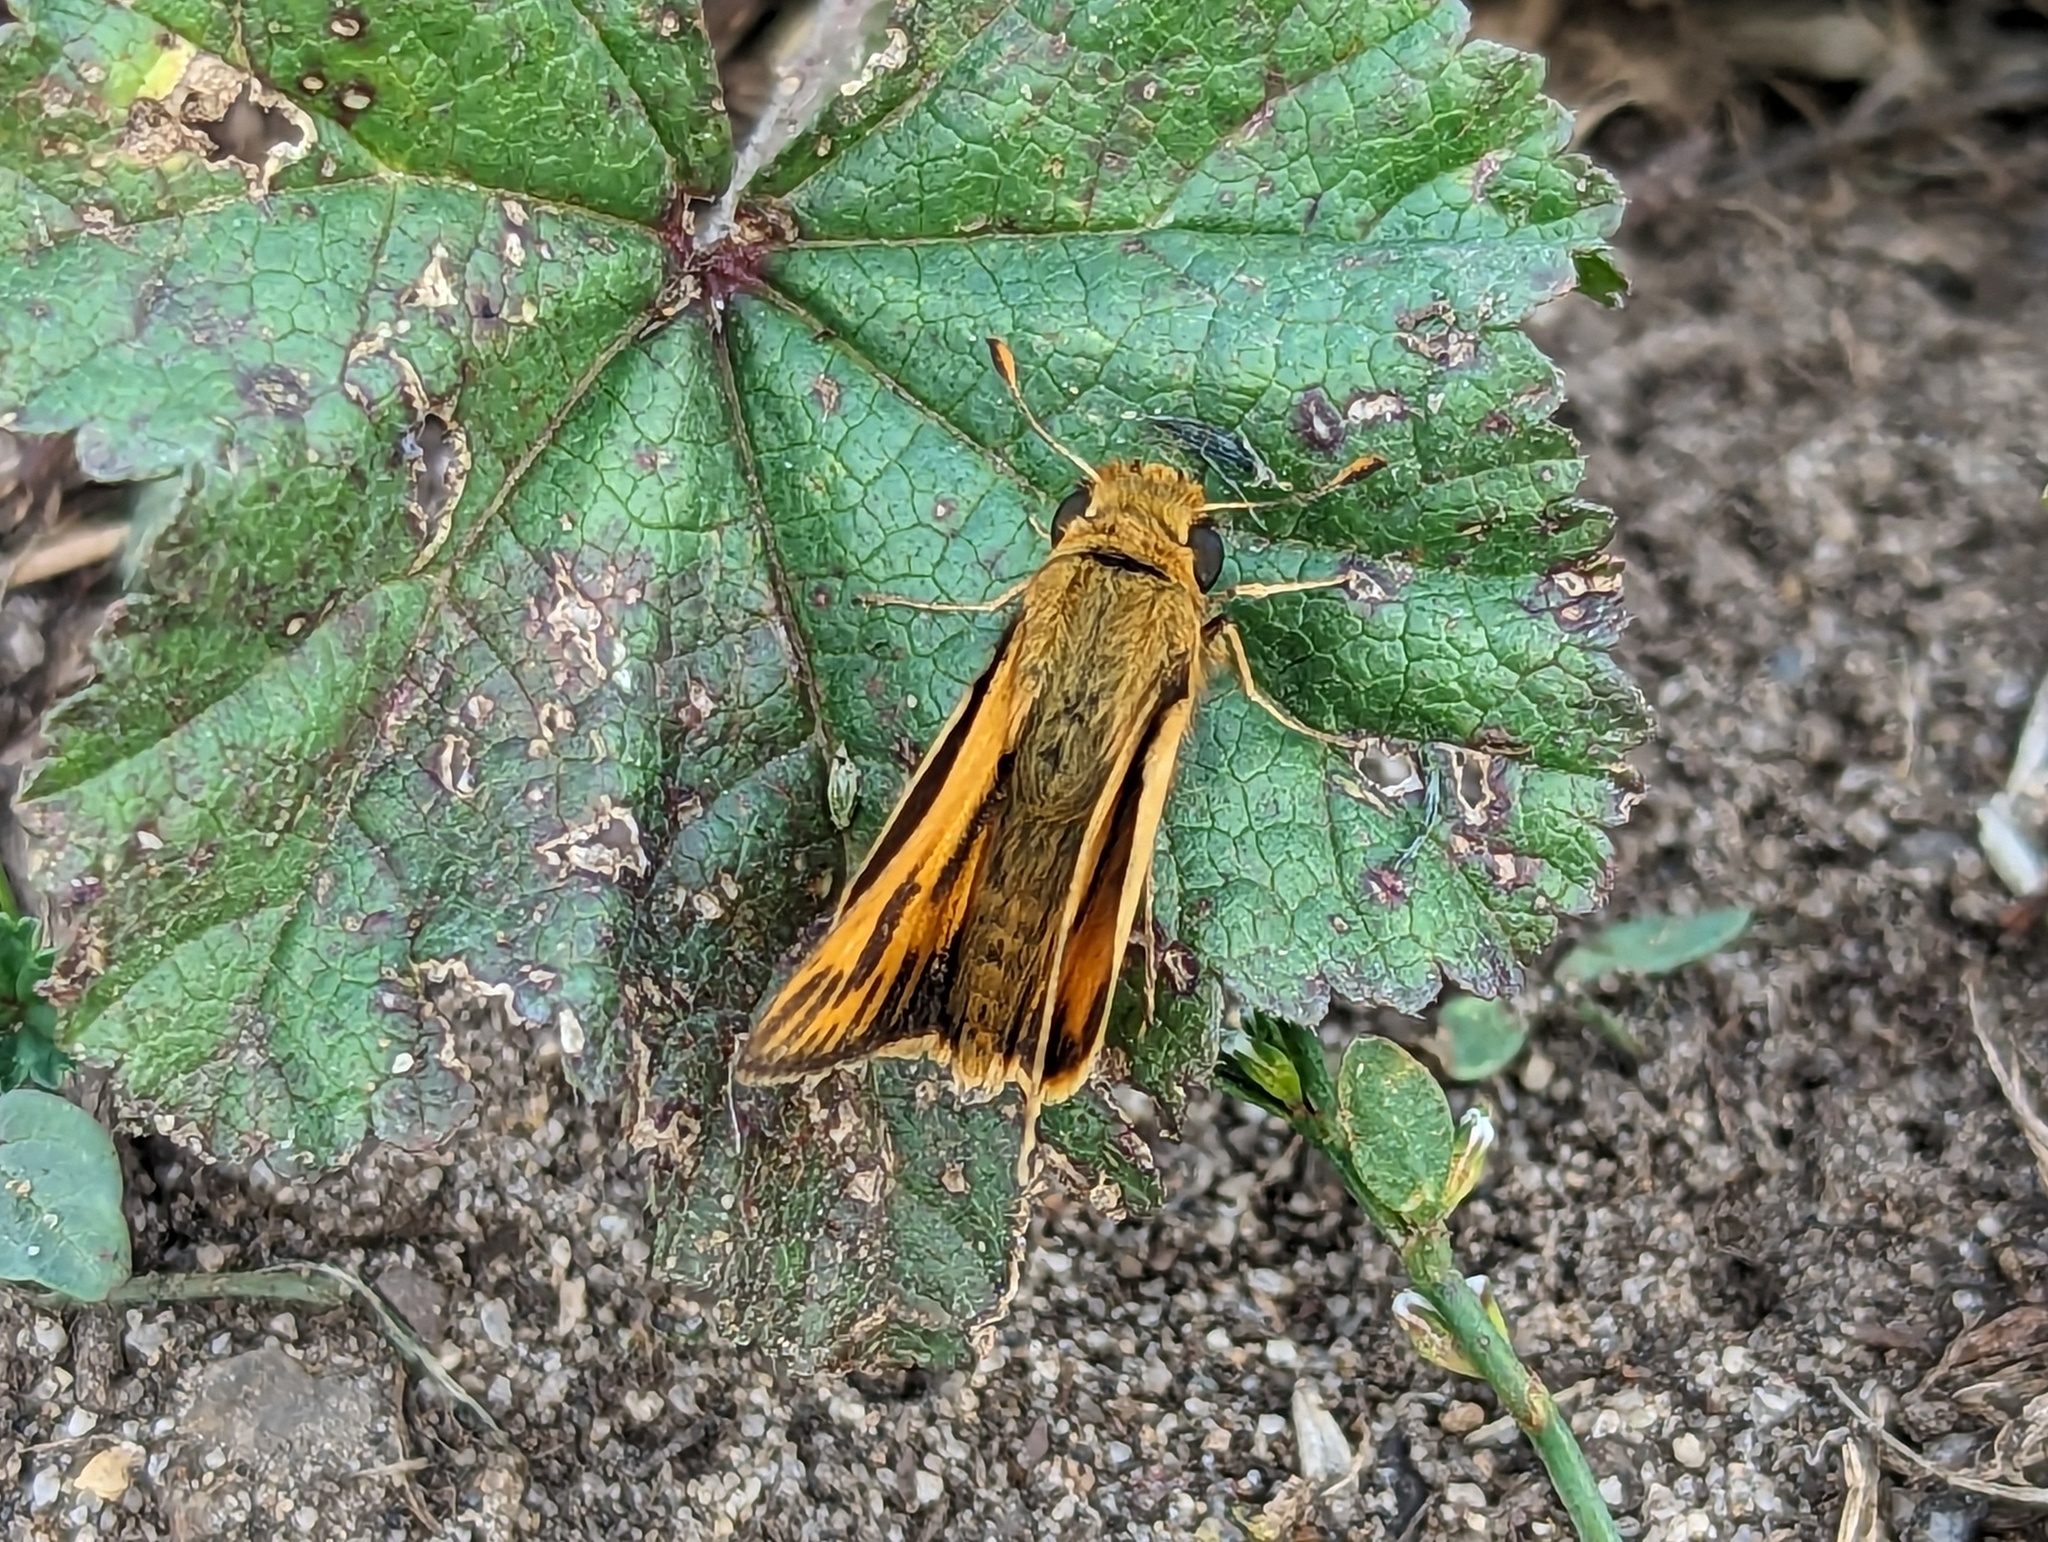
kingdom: Animalia
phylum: Arthropoda
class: Insecta
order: Lepidoptera
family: Hesperiidae
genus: Hylephila
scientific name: Hylephila phyleus
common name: Fiery skipper
